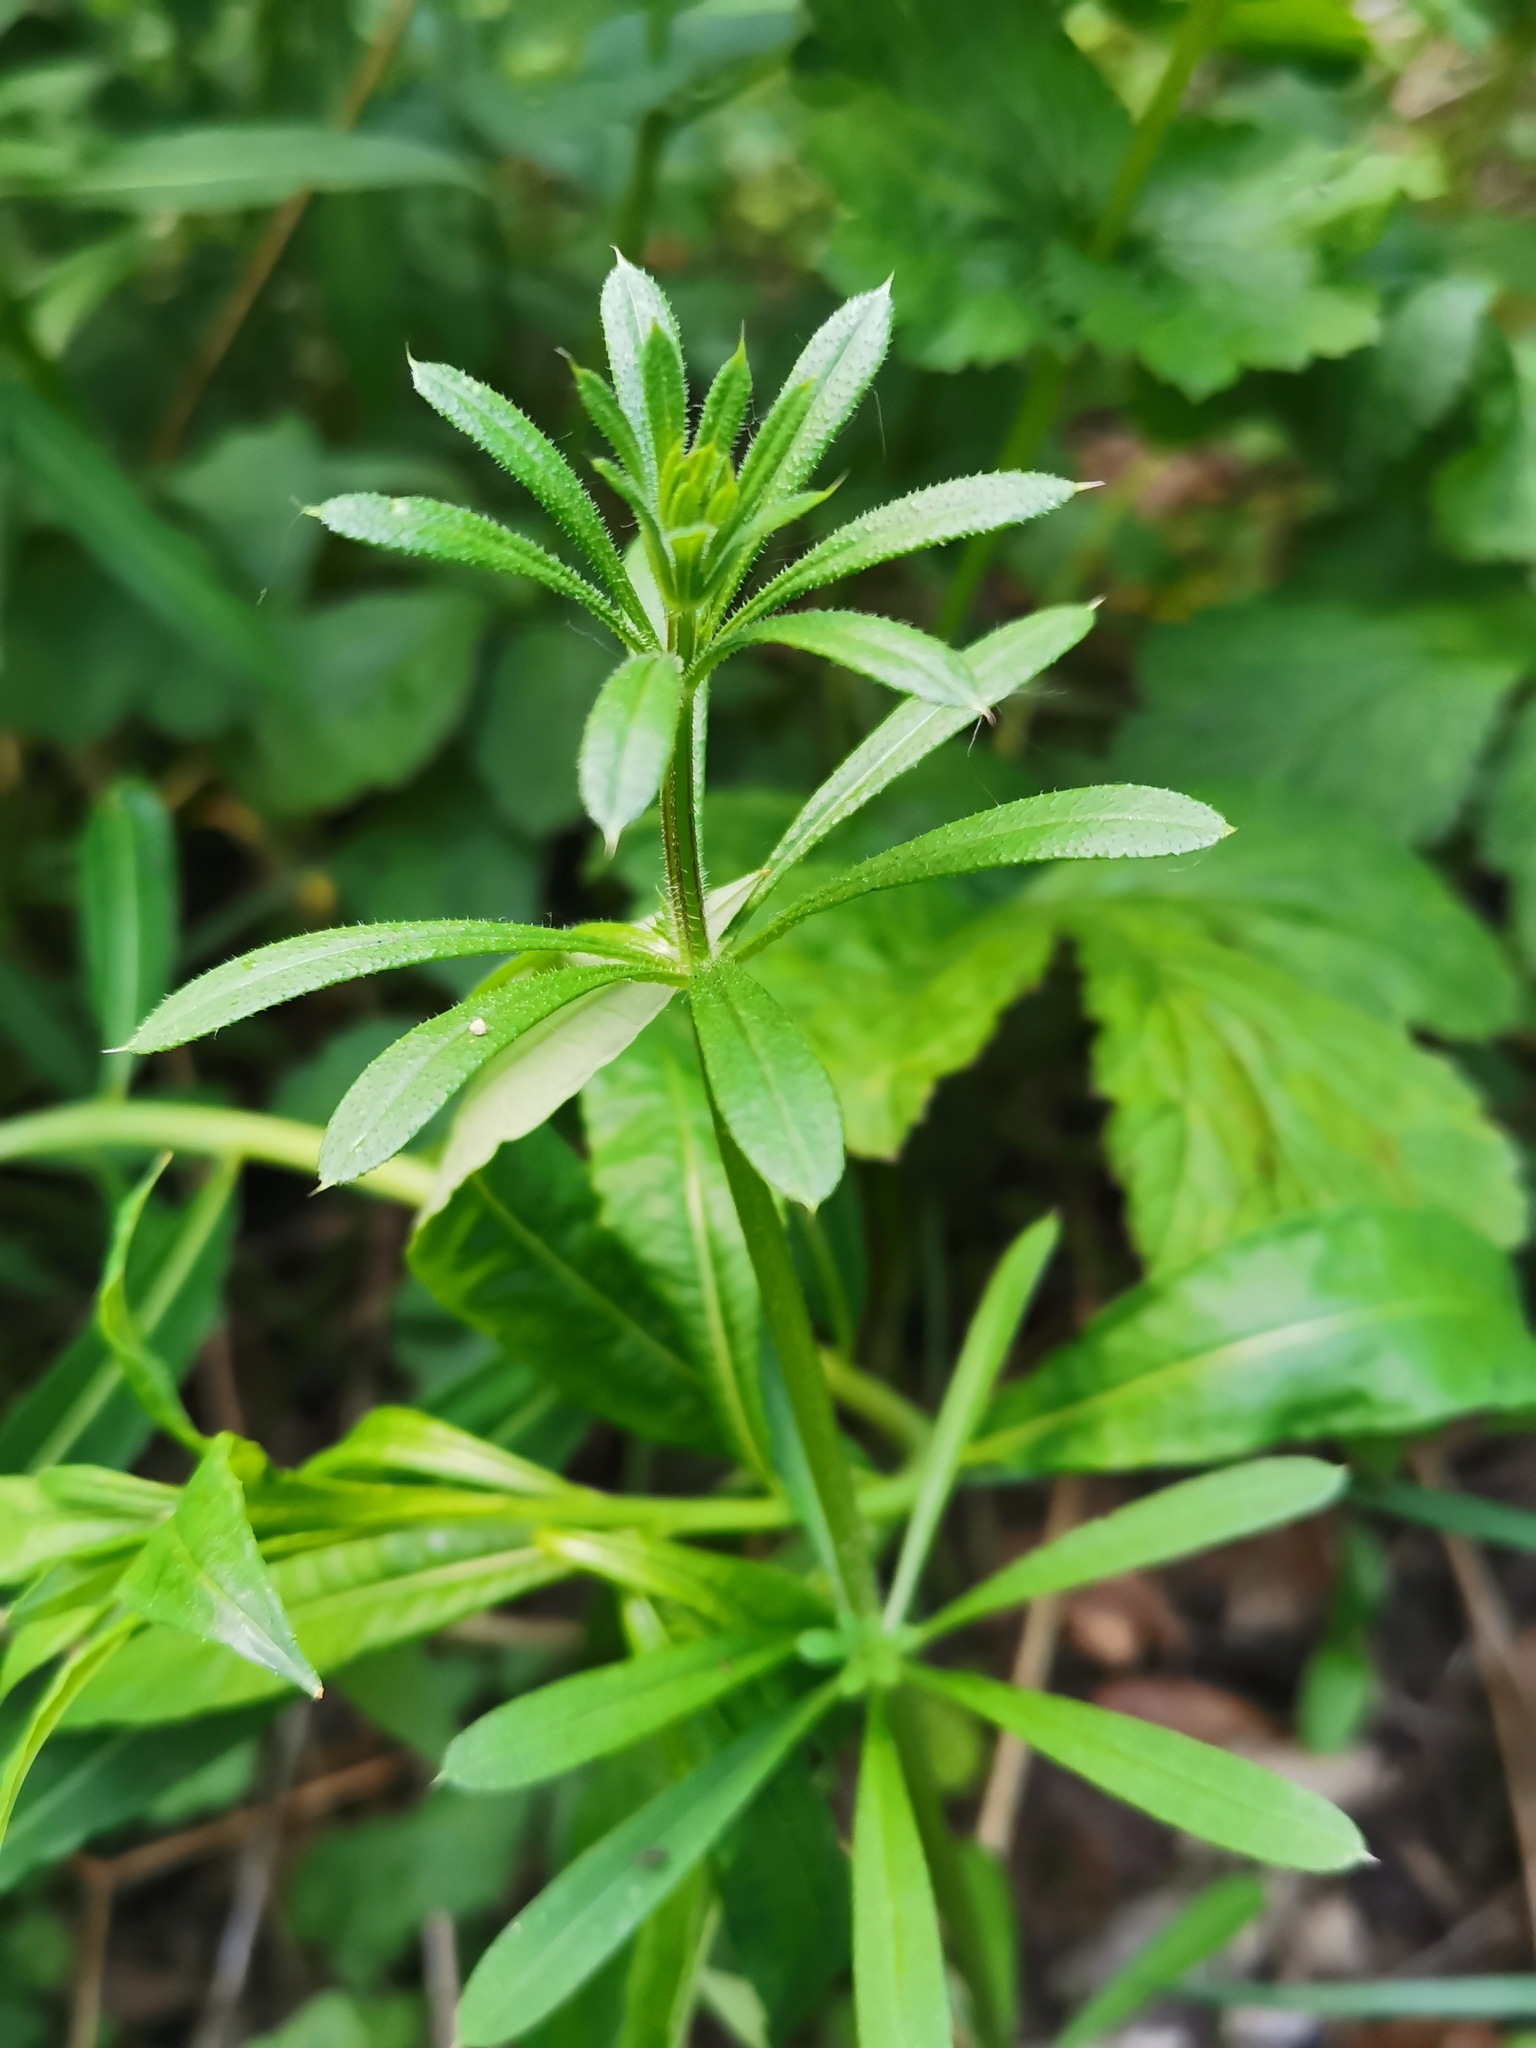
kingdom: Plantae
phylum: Tracheophyta
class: Magnoliopsida
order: Gentianales
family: Rubiaceae
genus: Galium
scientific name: Galium aparine
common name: Cleavers
